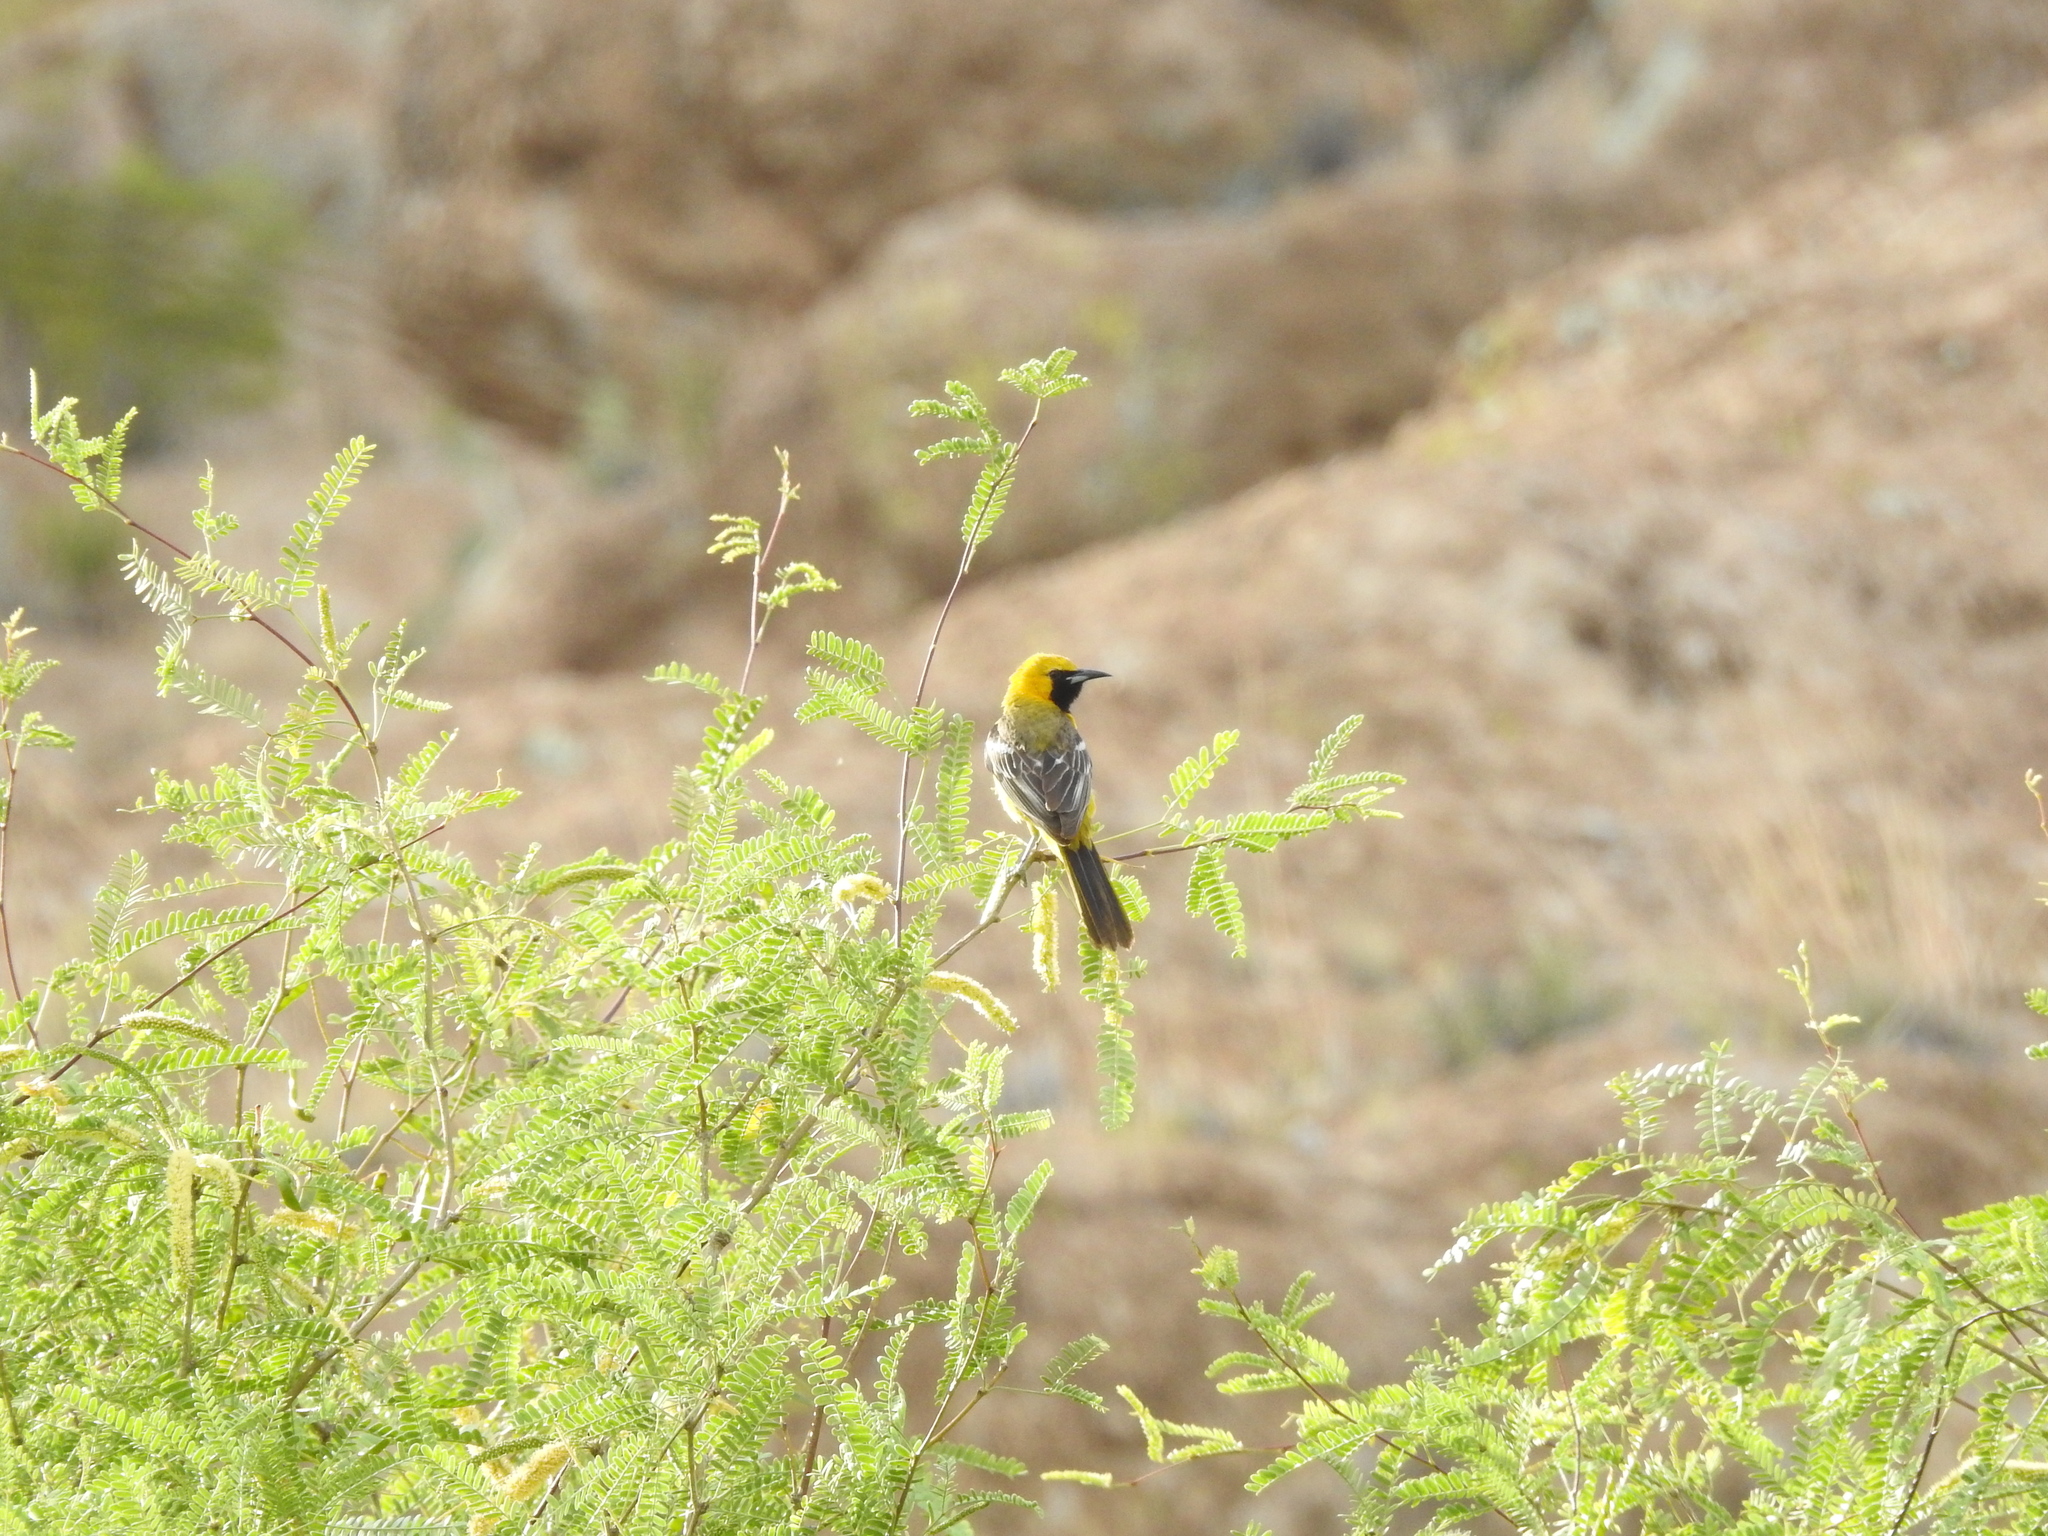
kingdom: Animalia
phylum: Chordata
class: Aves
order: Passeriformes
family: Icteridae
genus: Icterus
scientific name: Icterus cucullatus
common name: Hooded oriole
